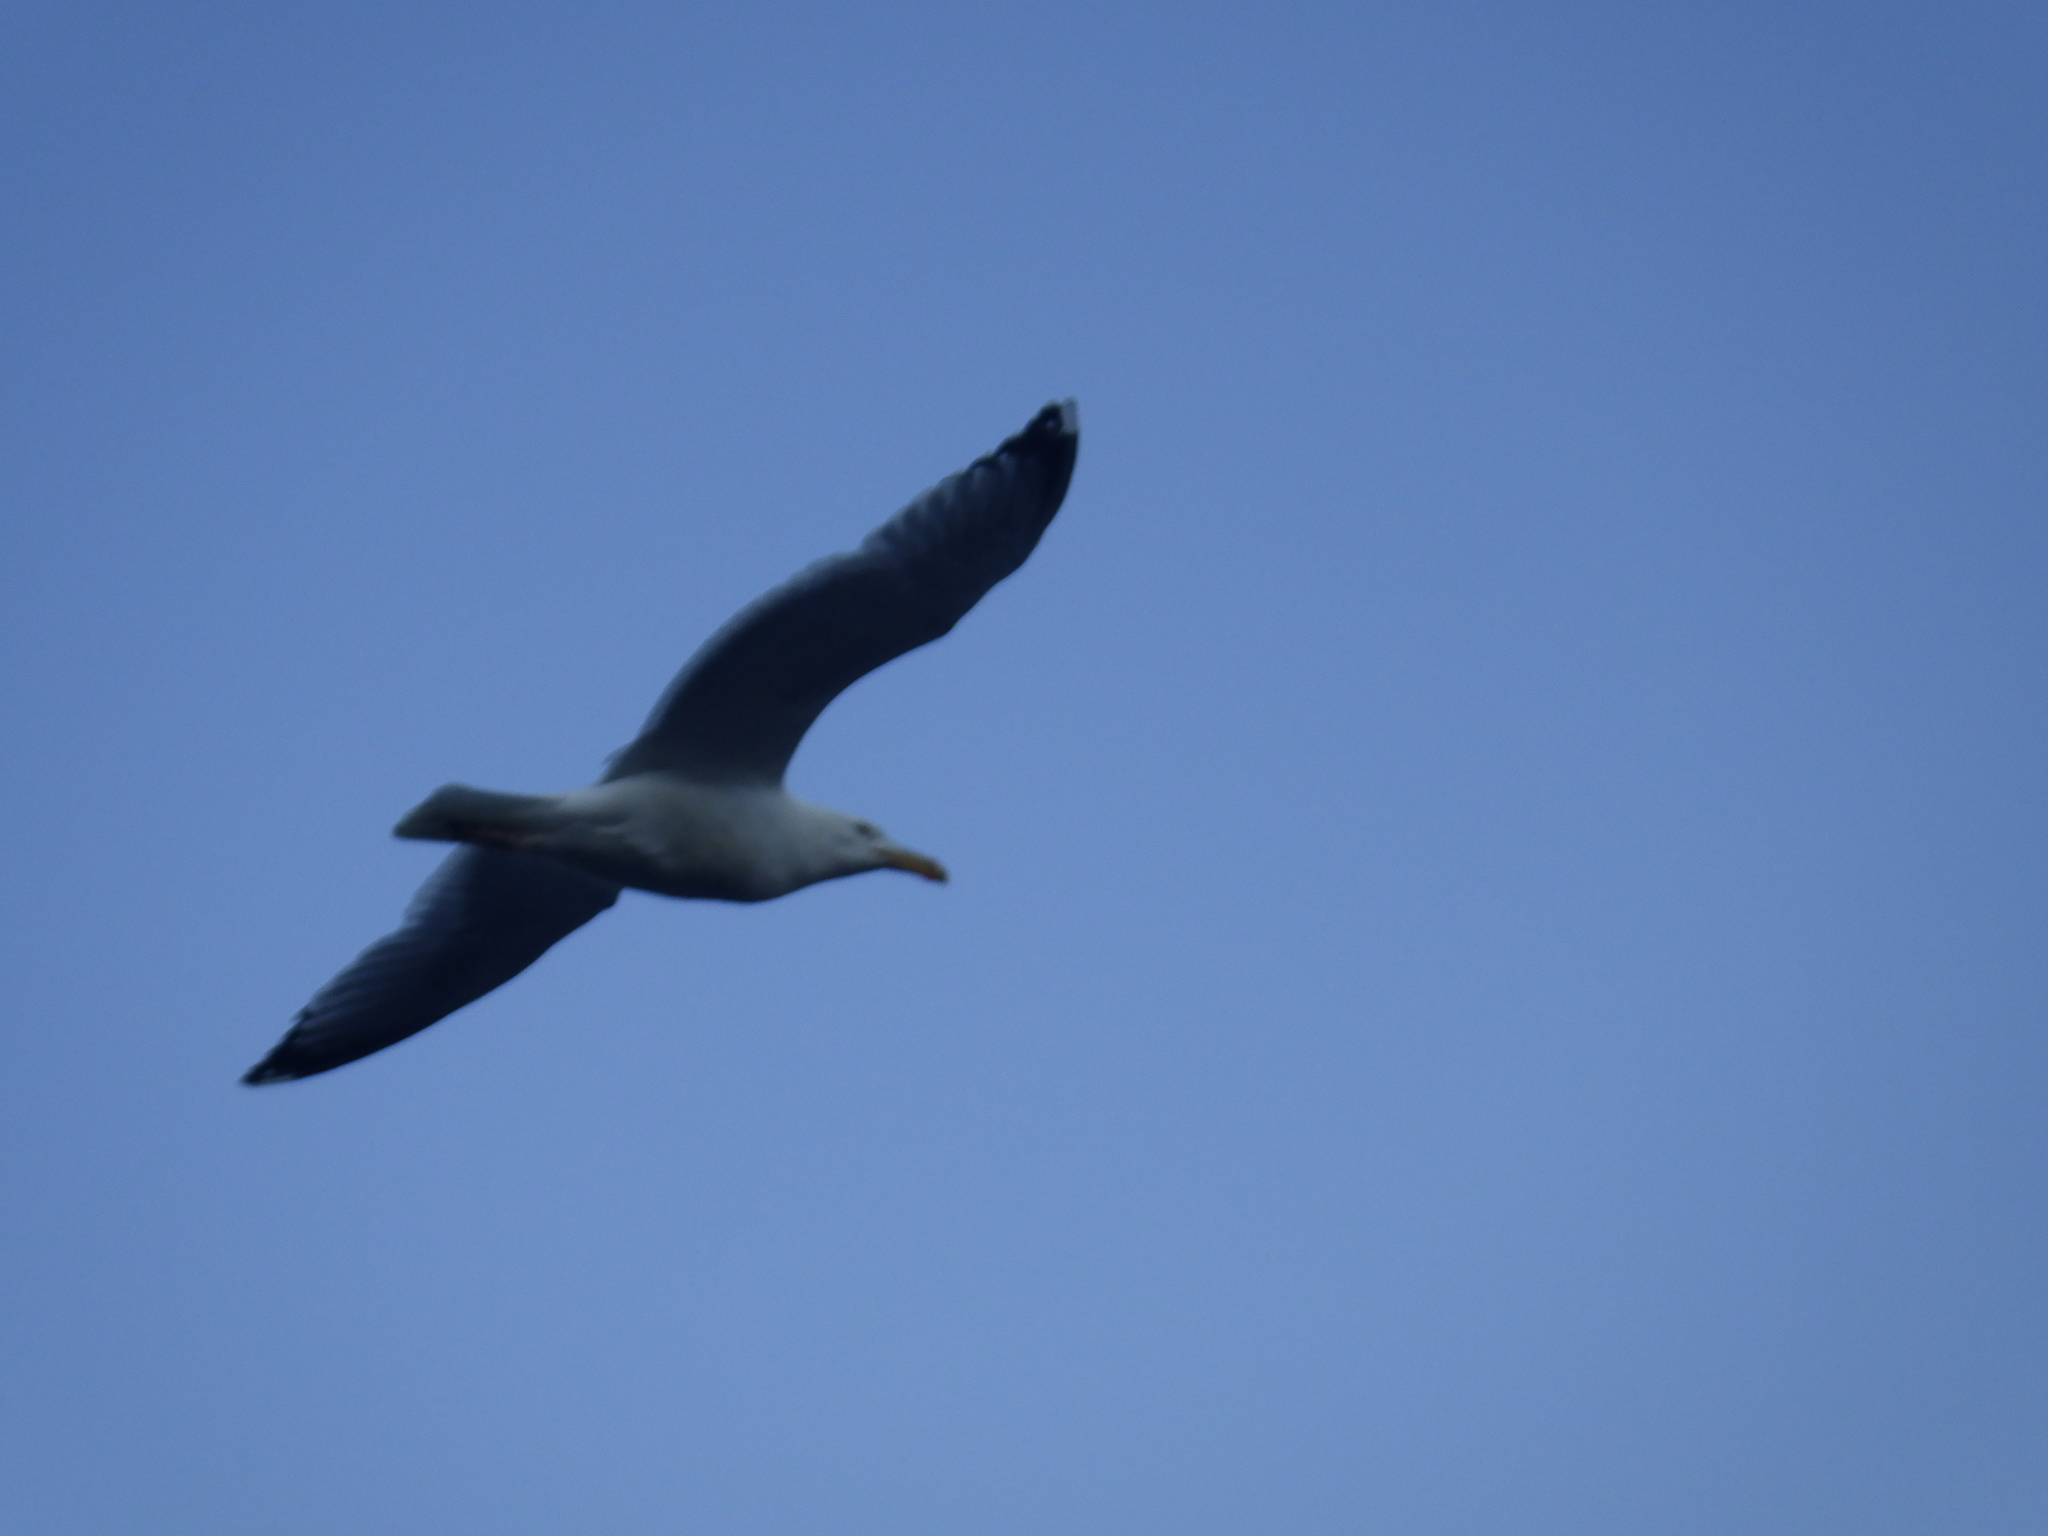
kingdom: Animalia
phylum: Chordata
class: Aves
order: Charadriiformes
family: Laridae
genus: Larus
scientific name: Larus argentatus
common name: Herring gull
